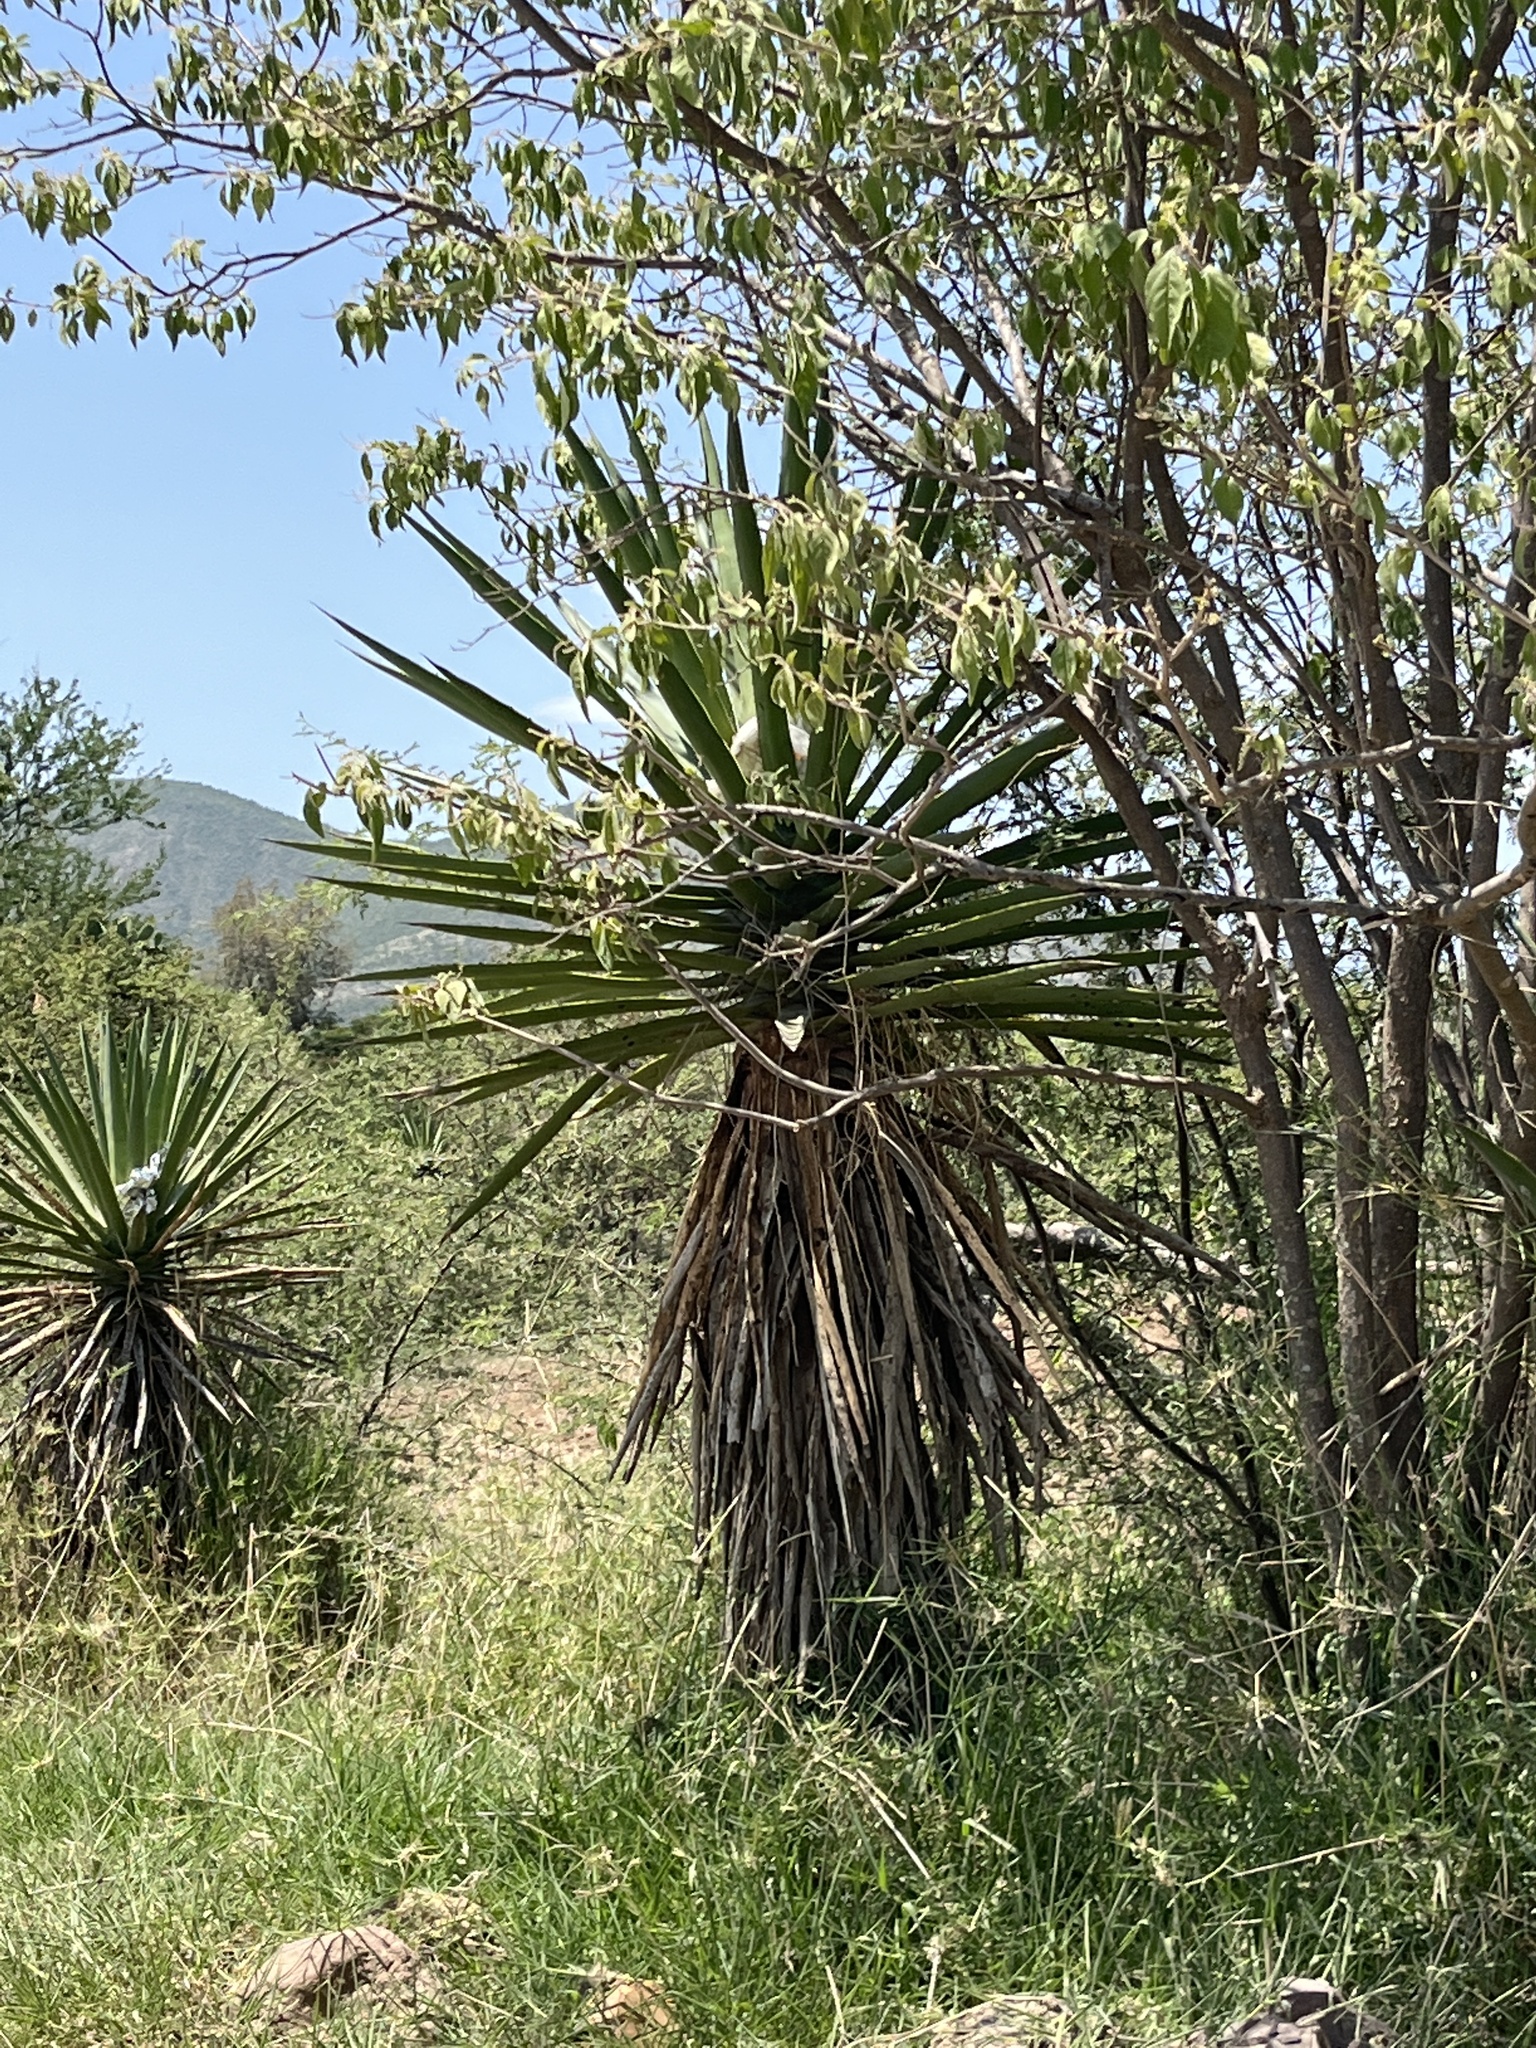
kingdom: Plantae
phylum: Tracheophyta
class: Liliopsida
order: Asparagales
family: Asparagaceae
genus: Agave
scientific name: Agave karwinskii
